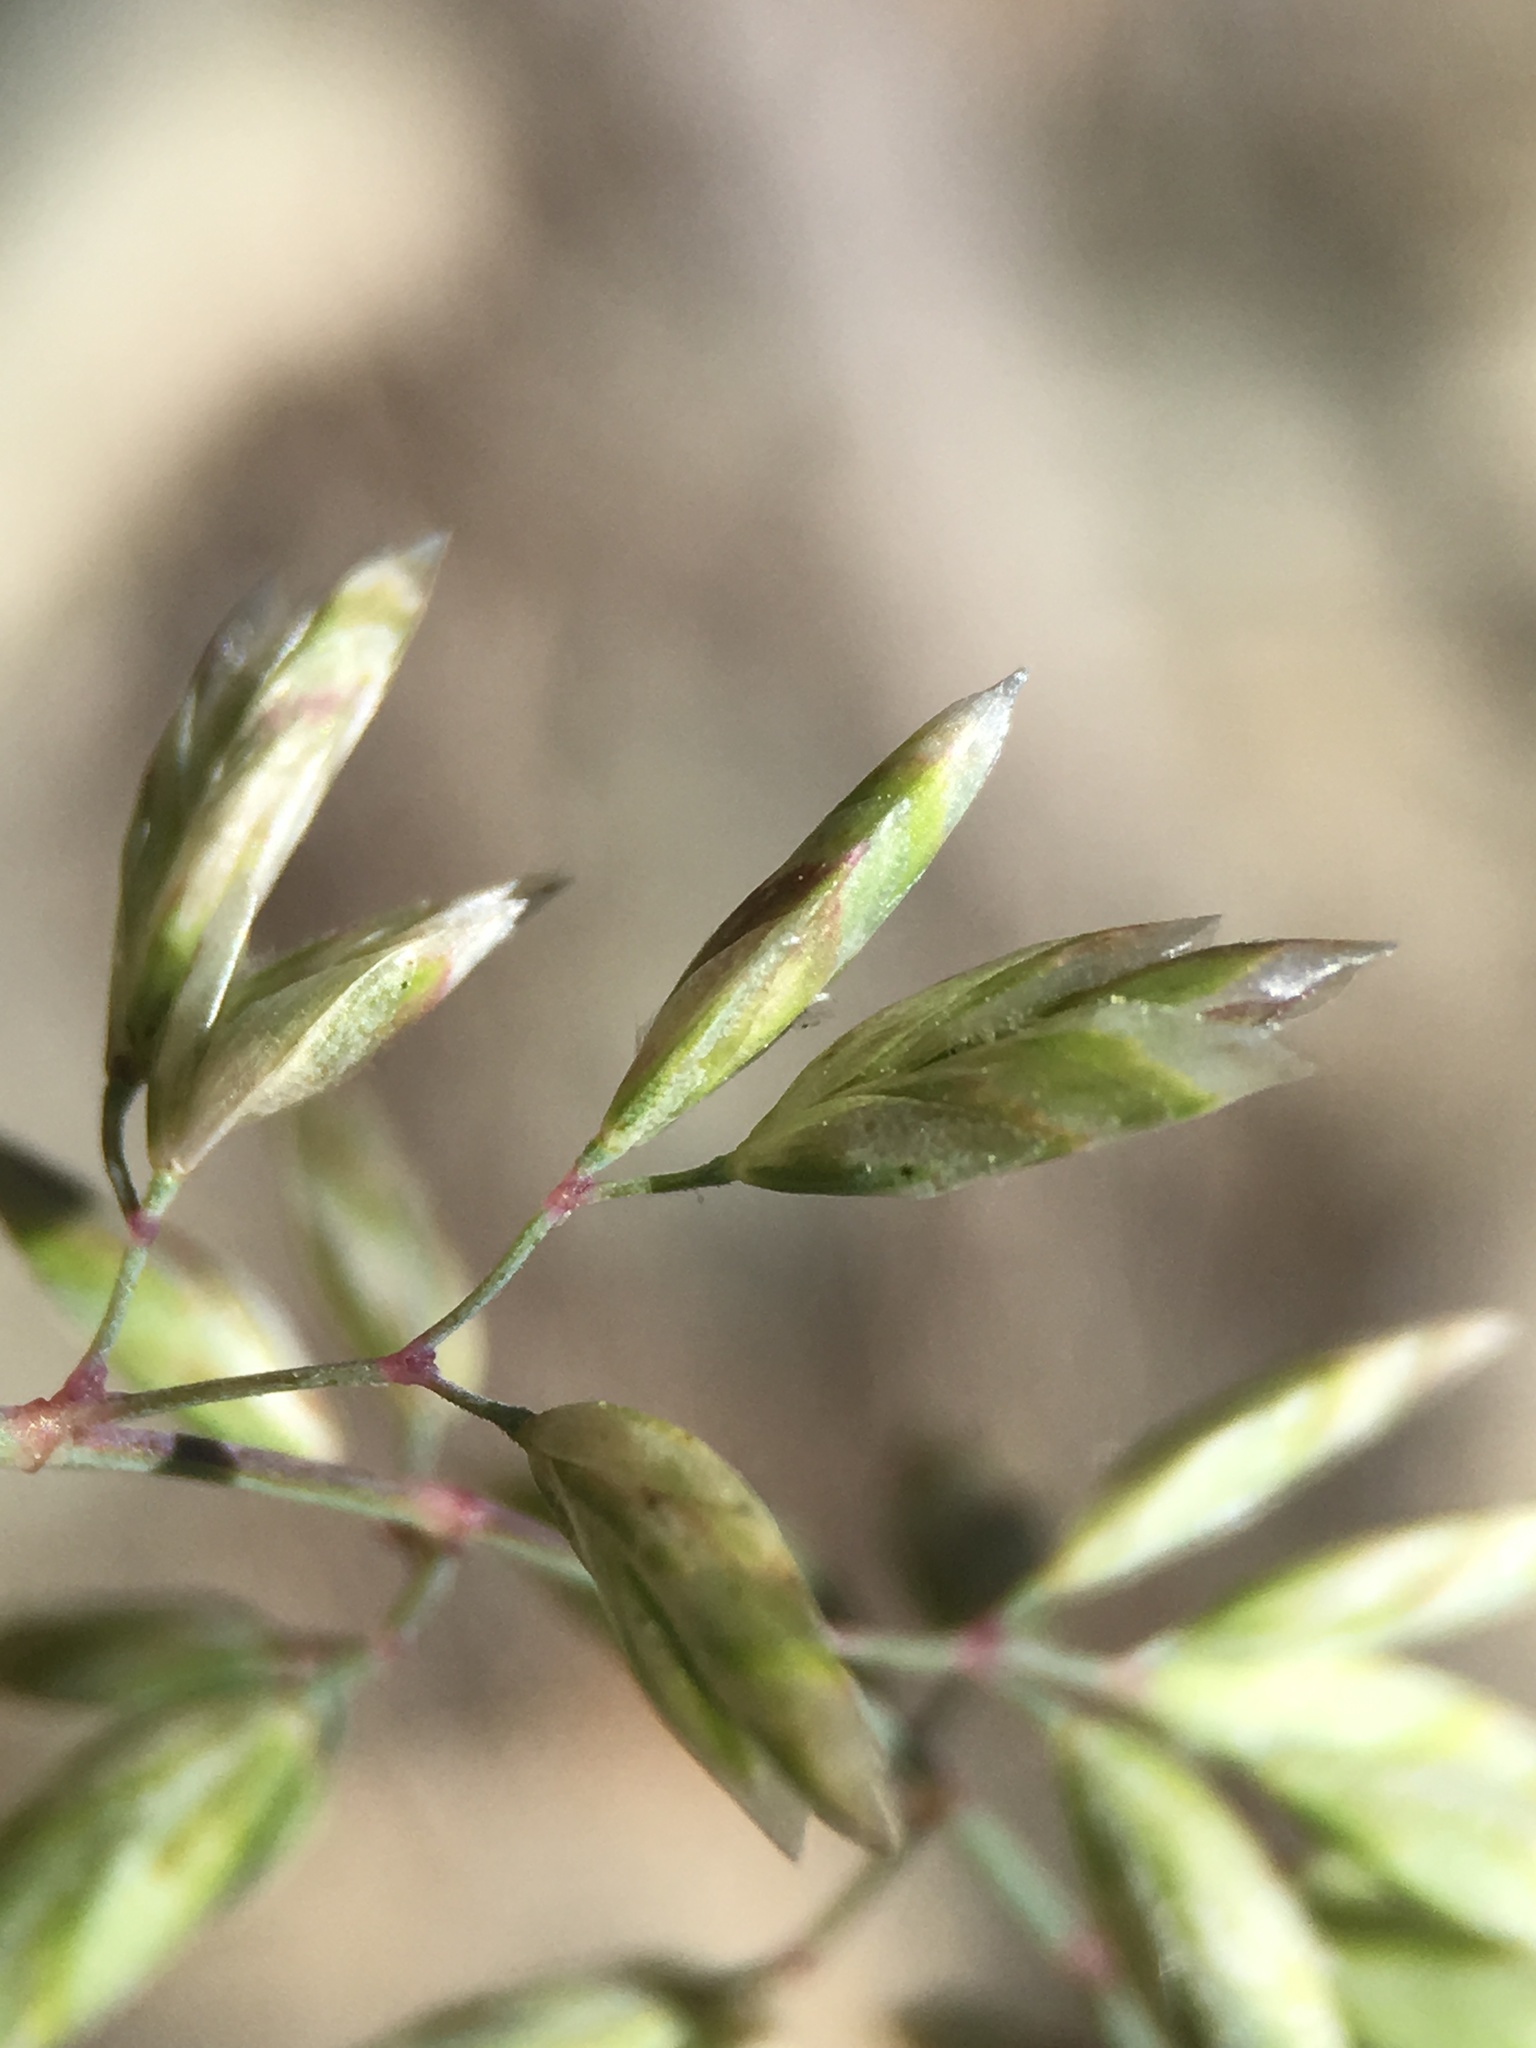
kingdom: Plantae
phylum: Tracheophyta
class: Liliopsida
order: Poales
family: Poaceae
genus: Poa
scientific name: Poa fendleriana
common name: Mutton bluegrass
